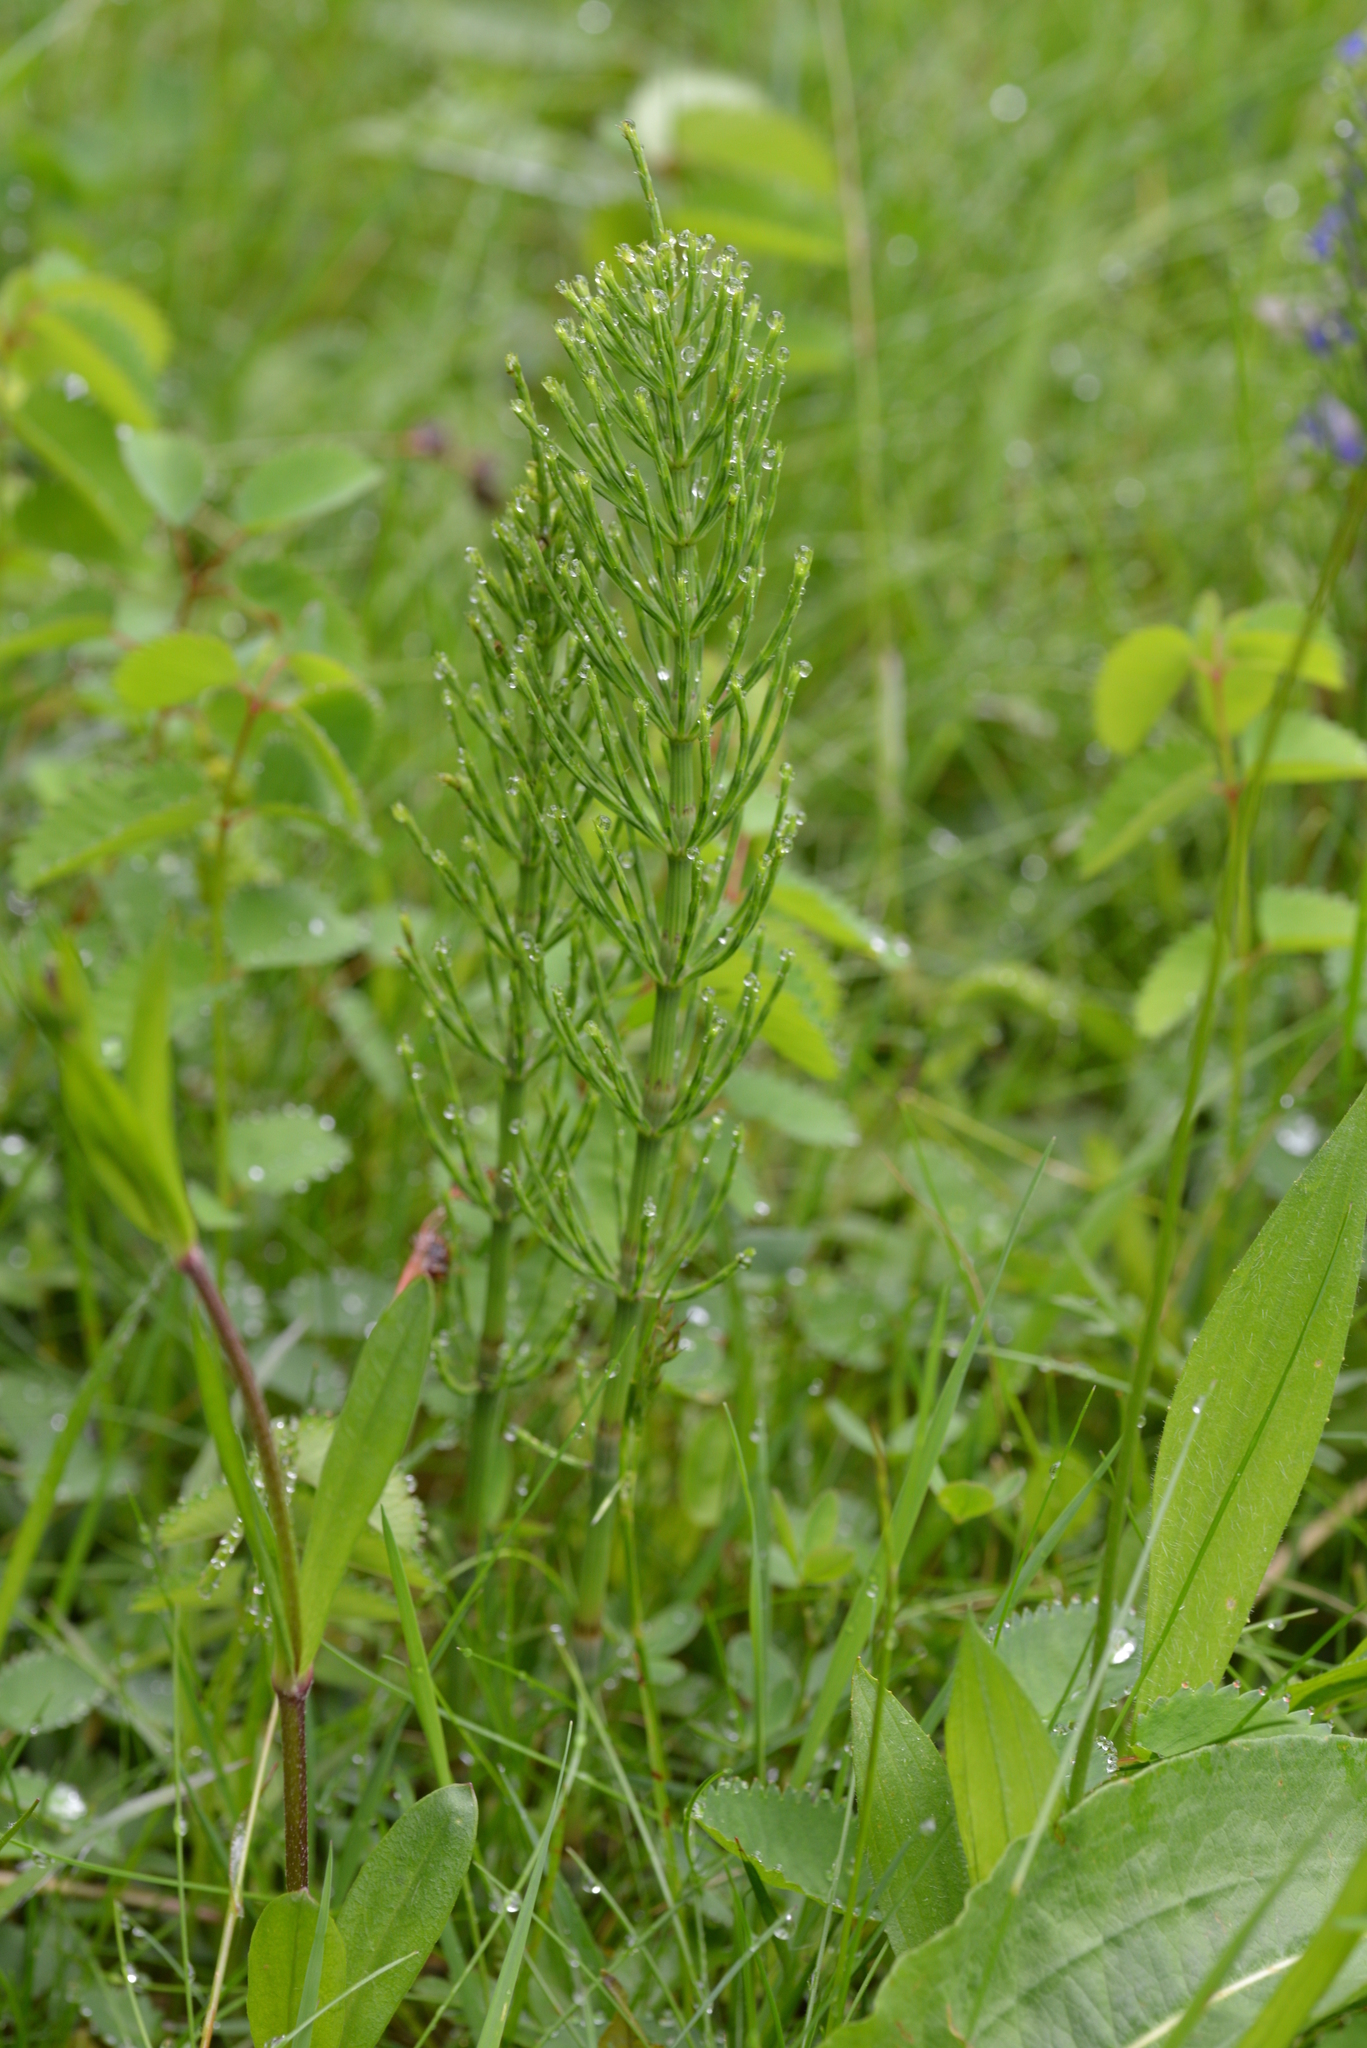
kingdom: Plantae
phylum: Tracheophyta
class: Polypodiopsida
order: Equisetales
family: Equisetaceae
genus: Equisetum
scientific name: Equisetum arvense
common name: Field horsetail
